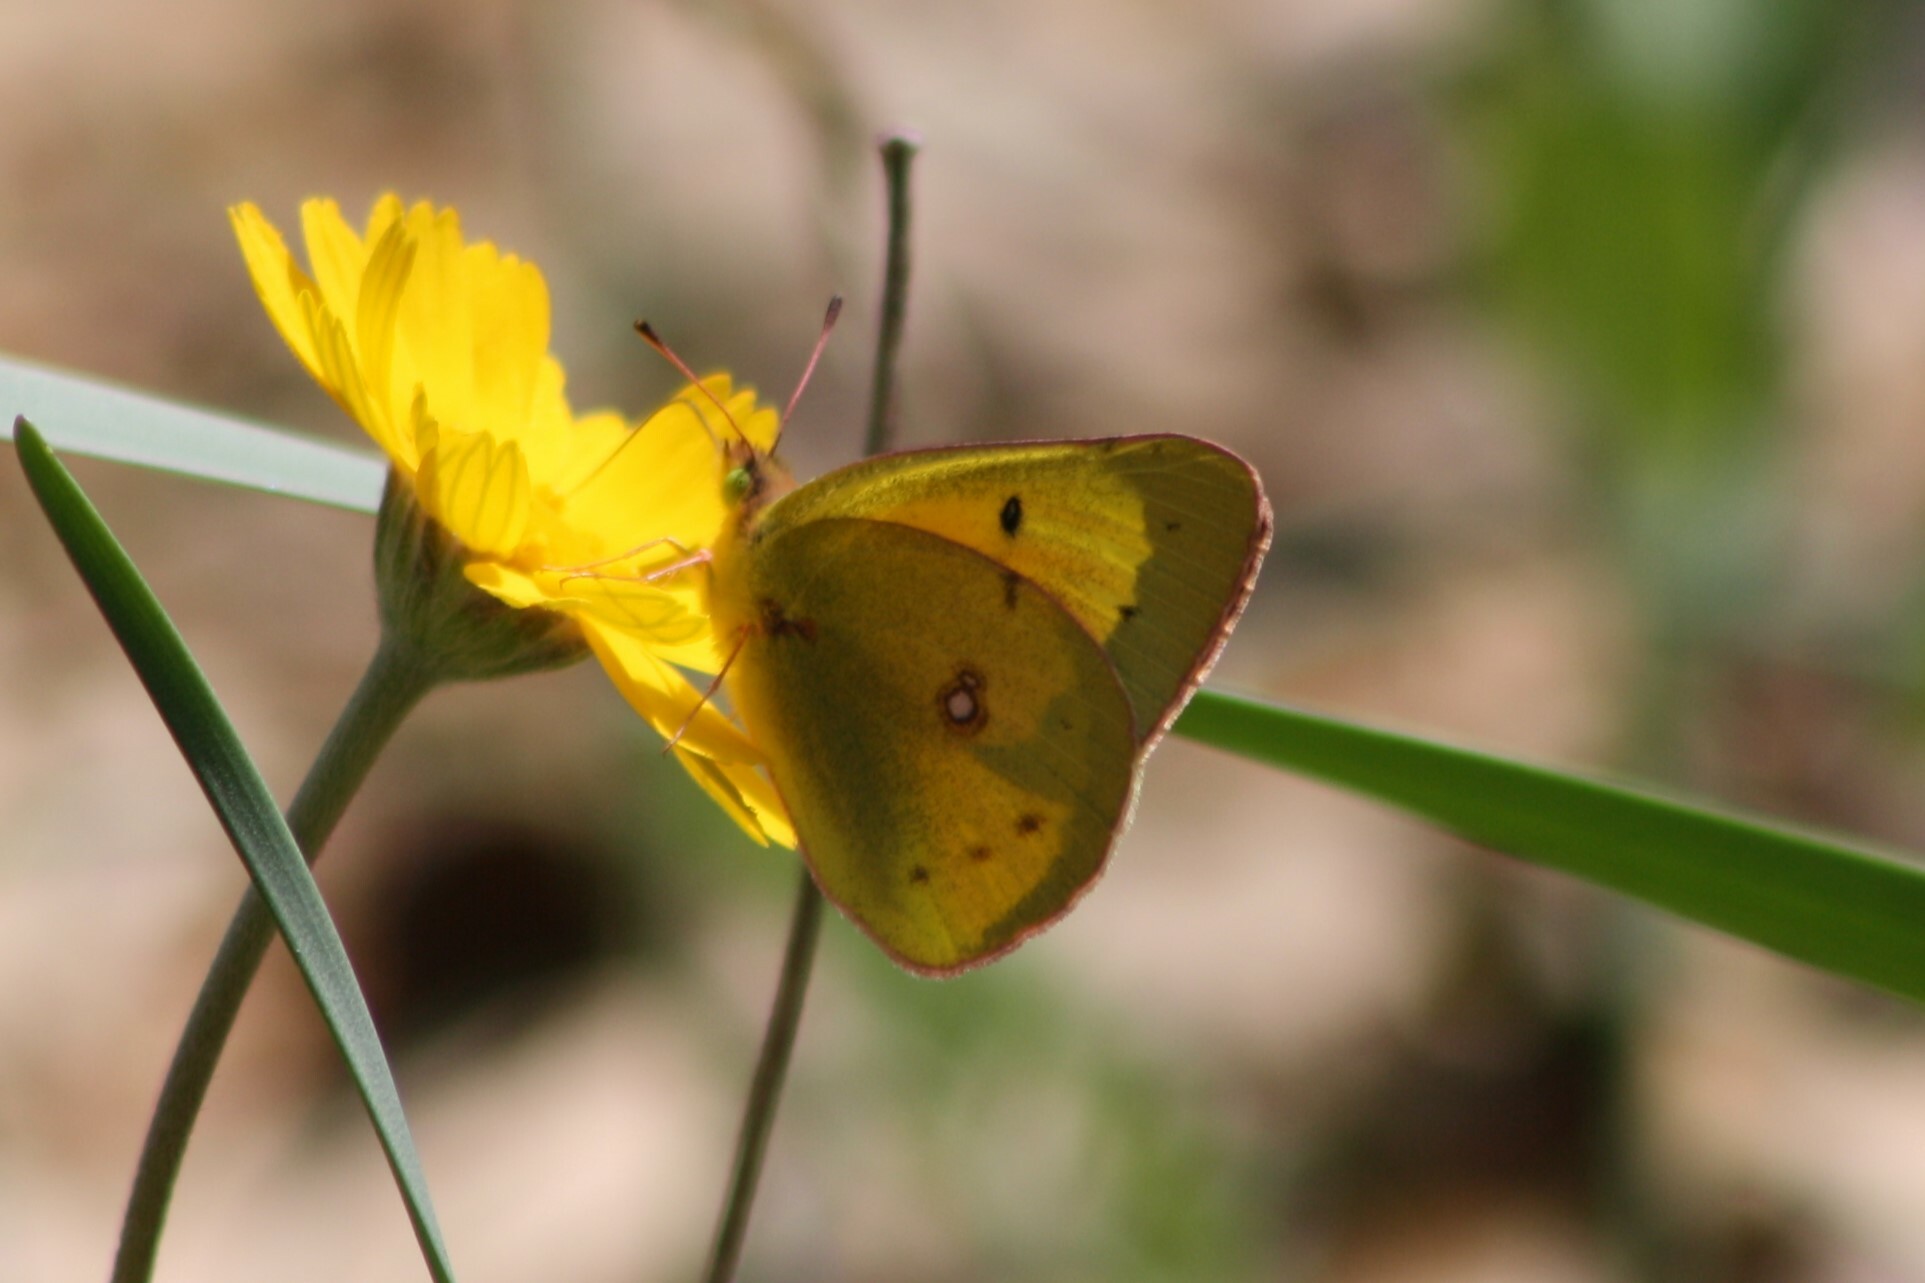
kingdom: Animalia
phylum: Arthropoda
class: Insecta
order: Lepidoptera
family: Pieridae
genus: Colias
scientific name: Colias eurytheme
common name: Alfalfa butterfly
